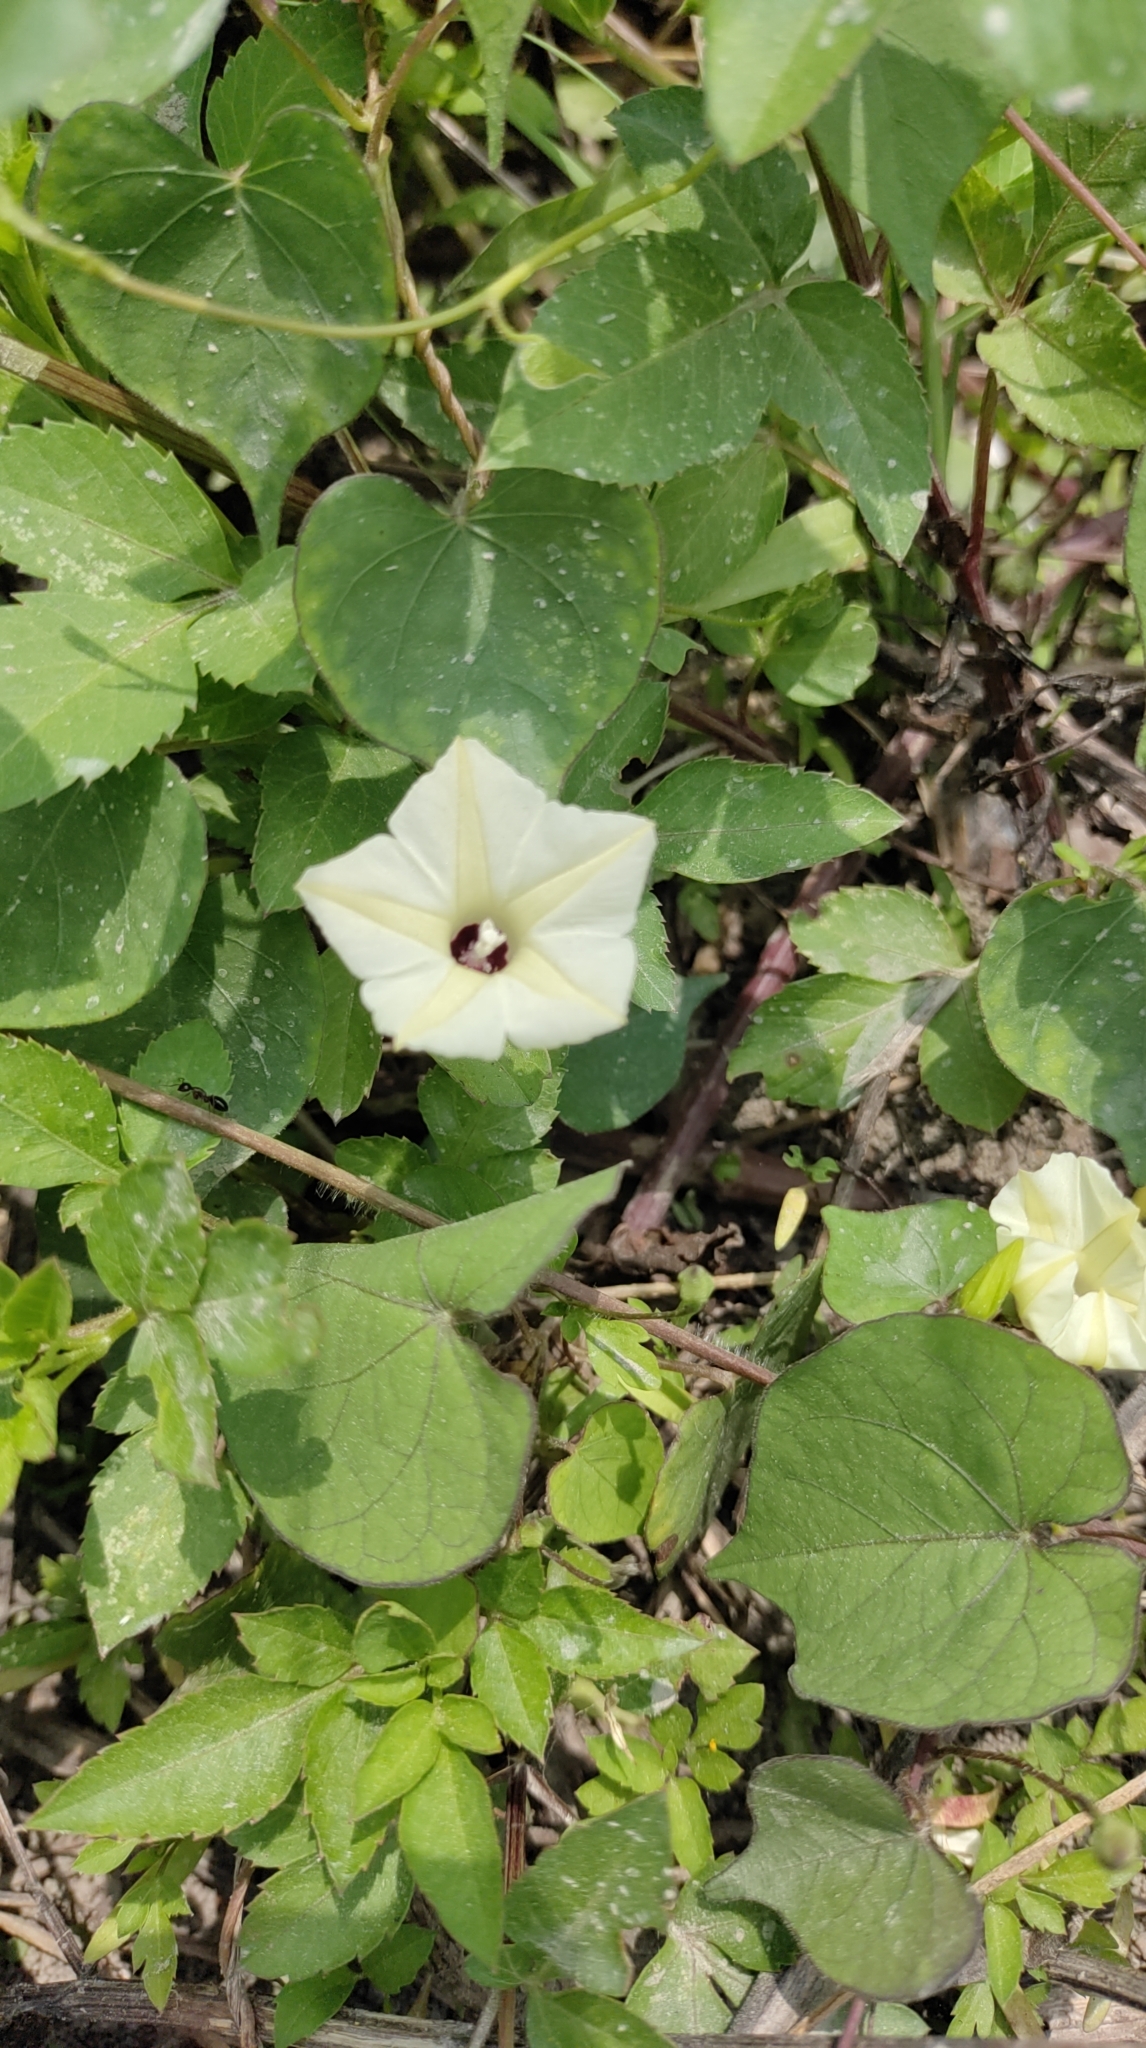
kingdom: Plantae
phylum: Tracheophyta
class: Magnoliopsida
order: Solanales
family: Convolvulaceae
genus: Ipomoea
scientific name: Ipomoea obscura
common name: Obscure morning-glory
